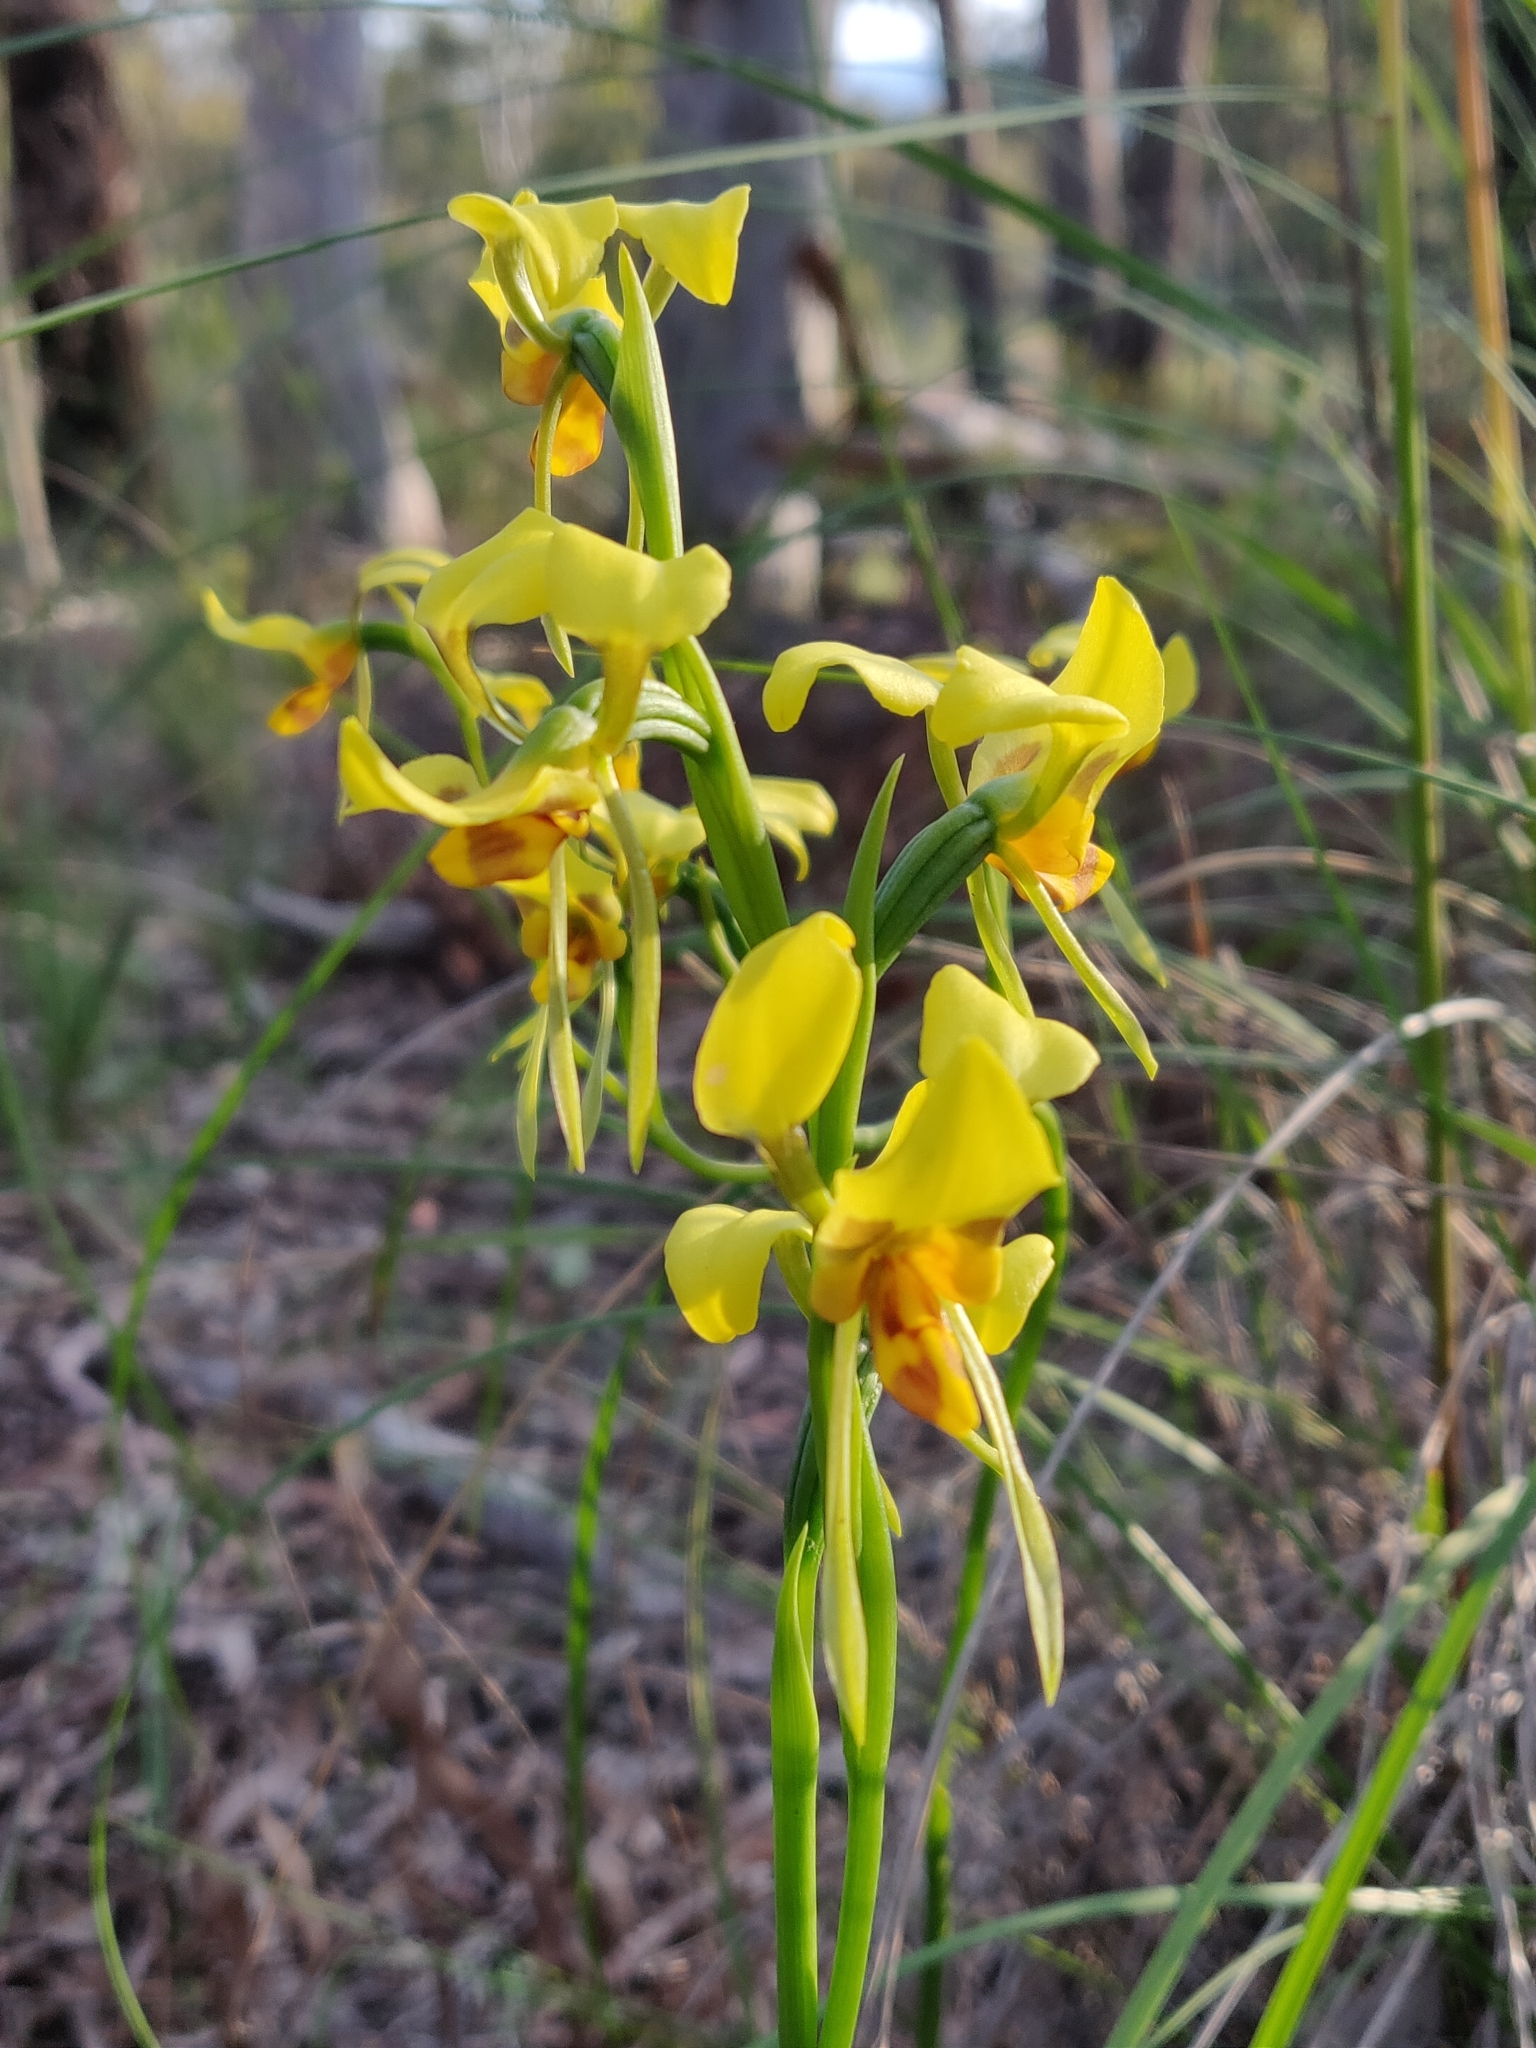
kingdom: Plantae
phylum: Tracheophyta
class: Liliopsida
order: Asparagales
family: Orchidaceae
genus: Diuris
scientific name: Diuris sulphurea
